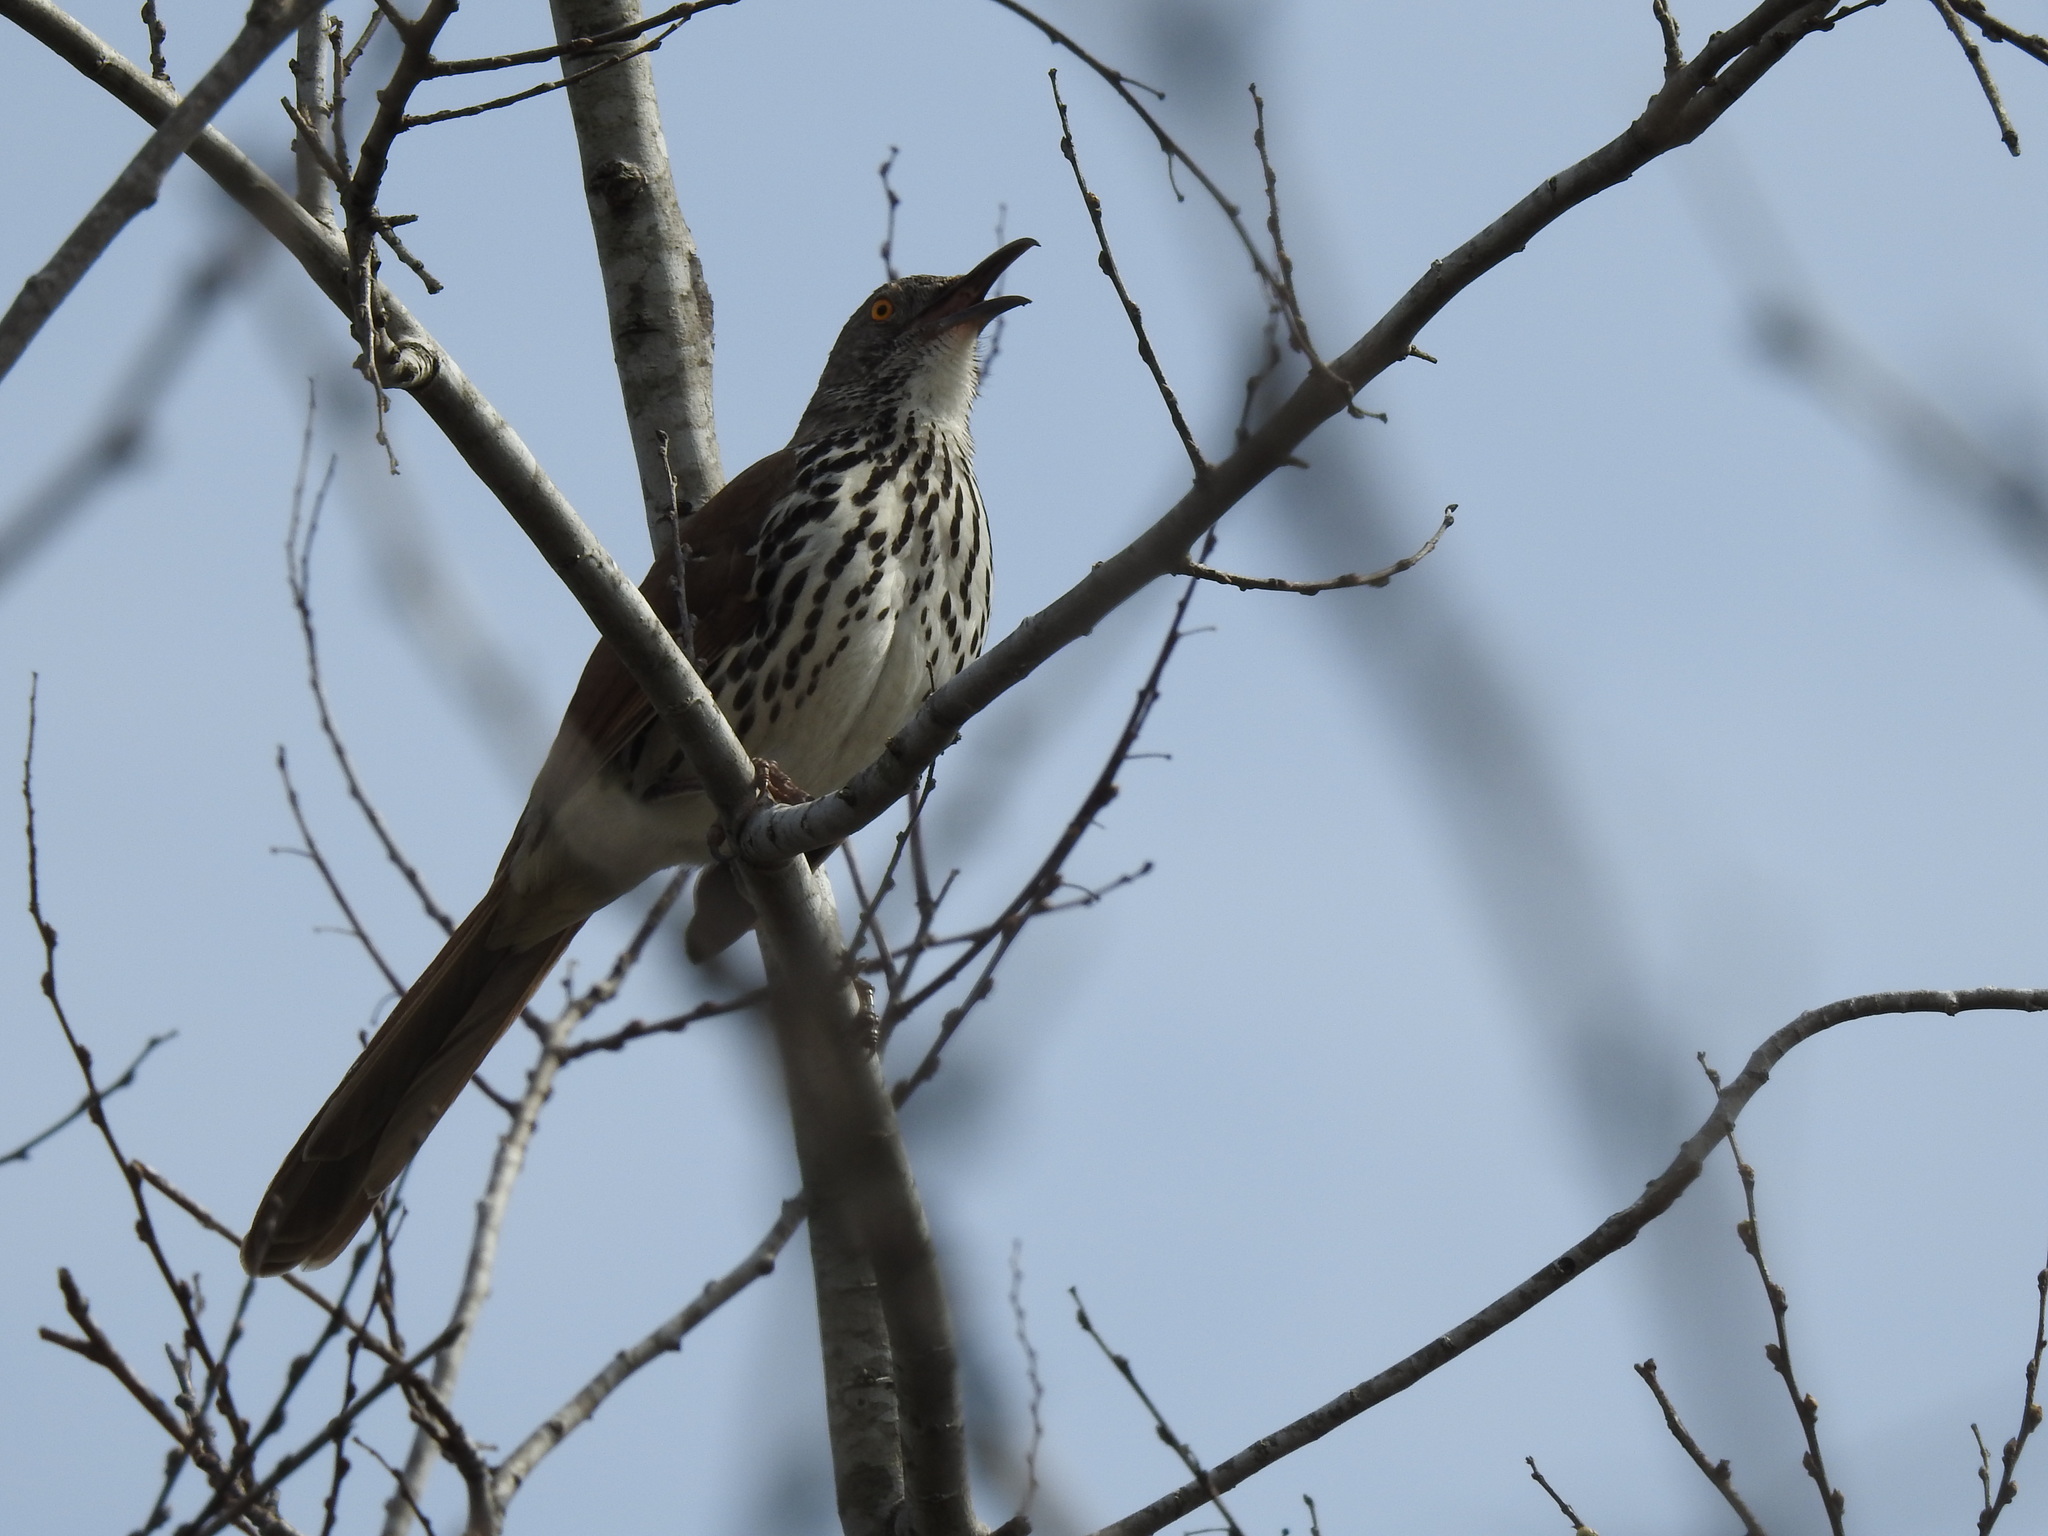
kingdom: Animalia
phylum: Chordata
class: Aves
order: Passeriformes
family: Mimidae
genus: Toxostoma
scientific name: Toxostoma longirostre
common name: Long-billed thrasher
